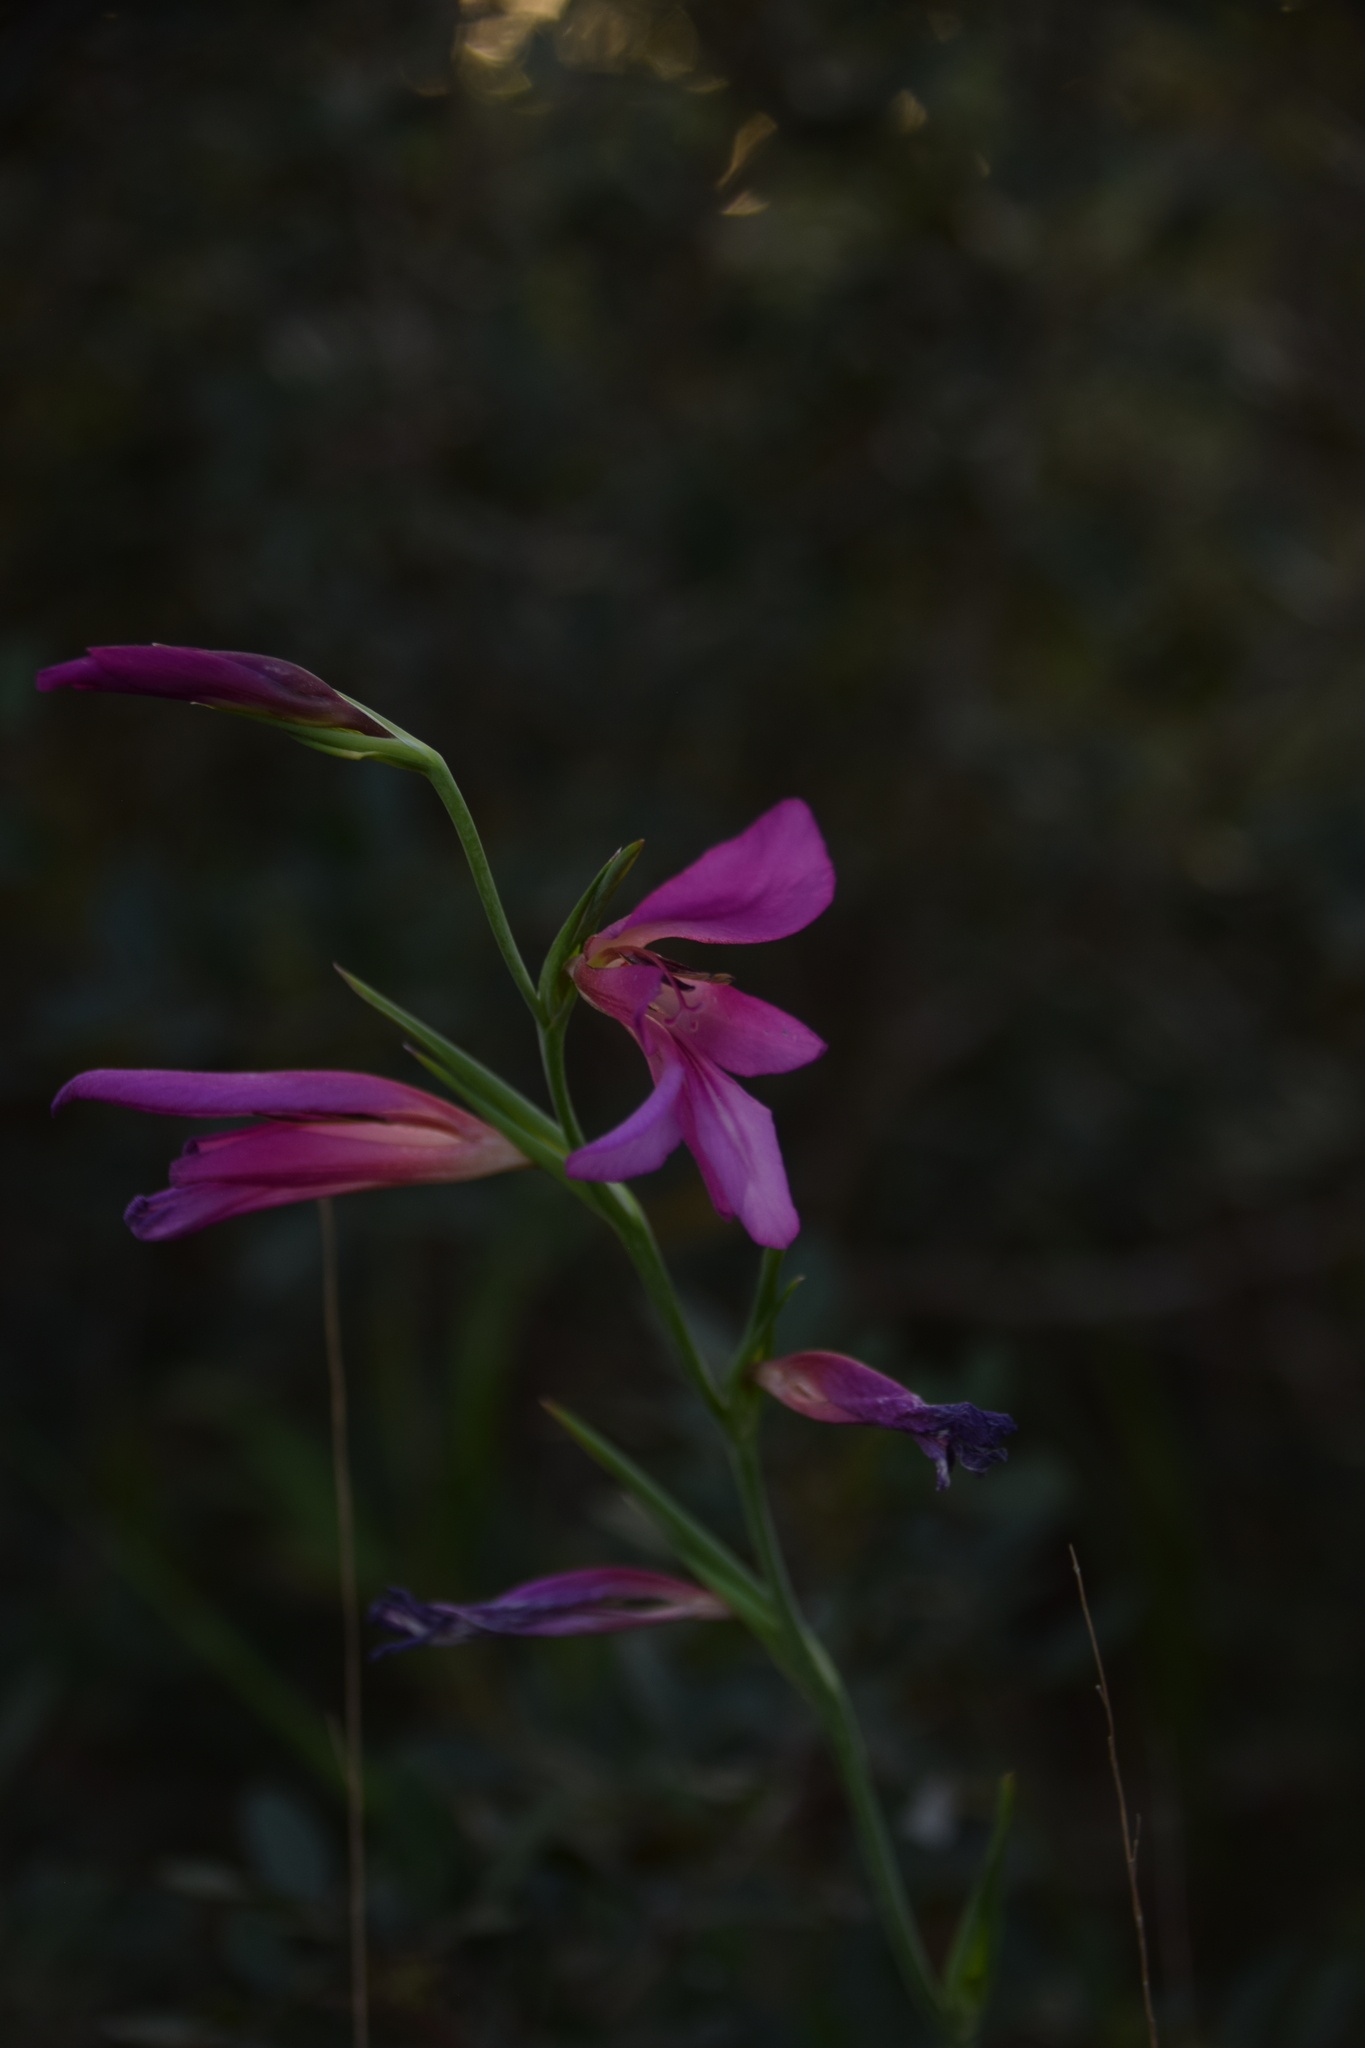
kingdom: Plantae
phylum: Tracheophyta
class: Liliopsida
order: Asparagales
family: Iridaceae
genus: Gladiolus
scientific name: Gladiolus italicus
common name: Field gladiolus
